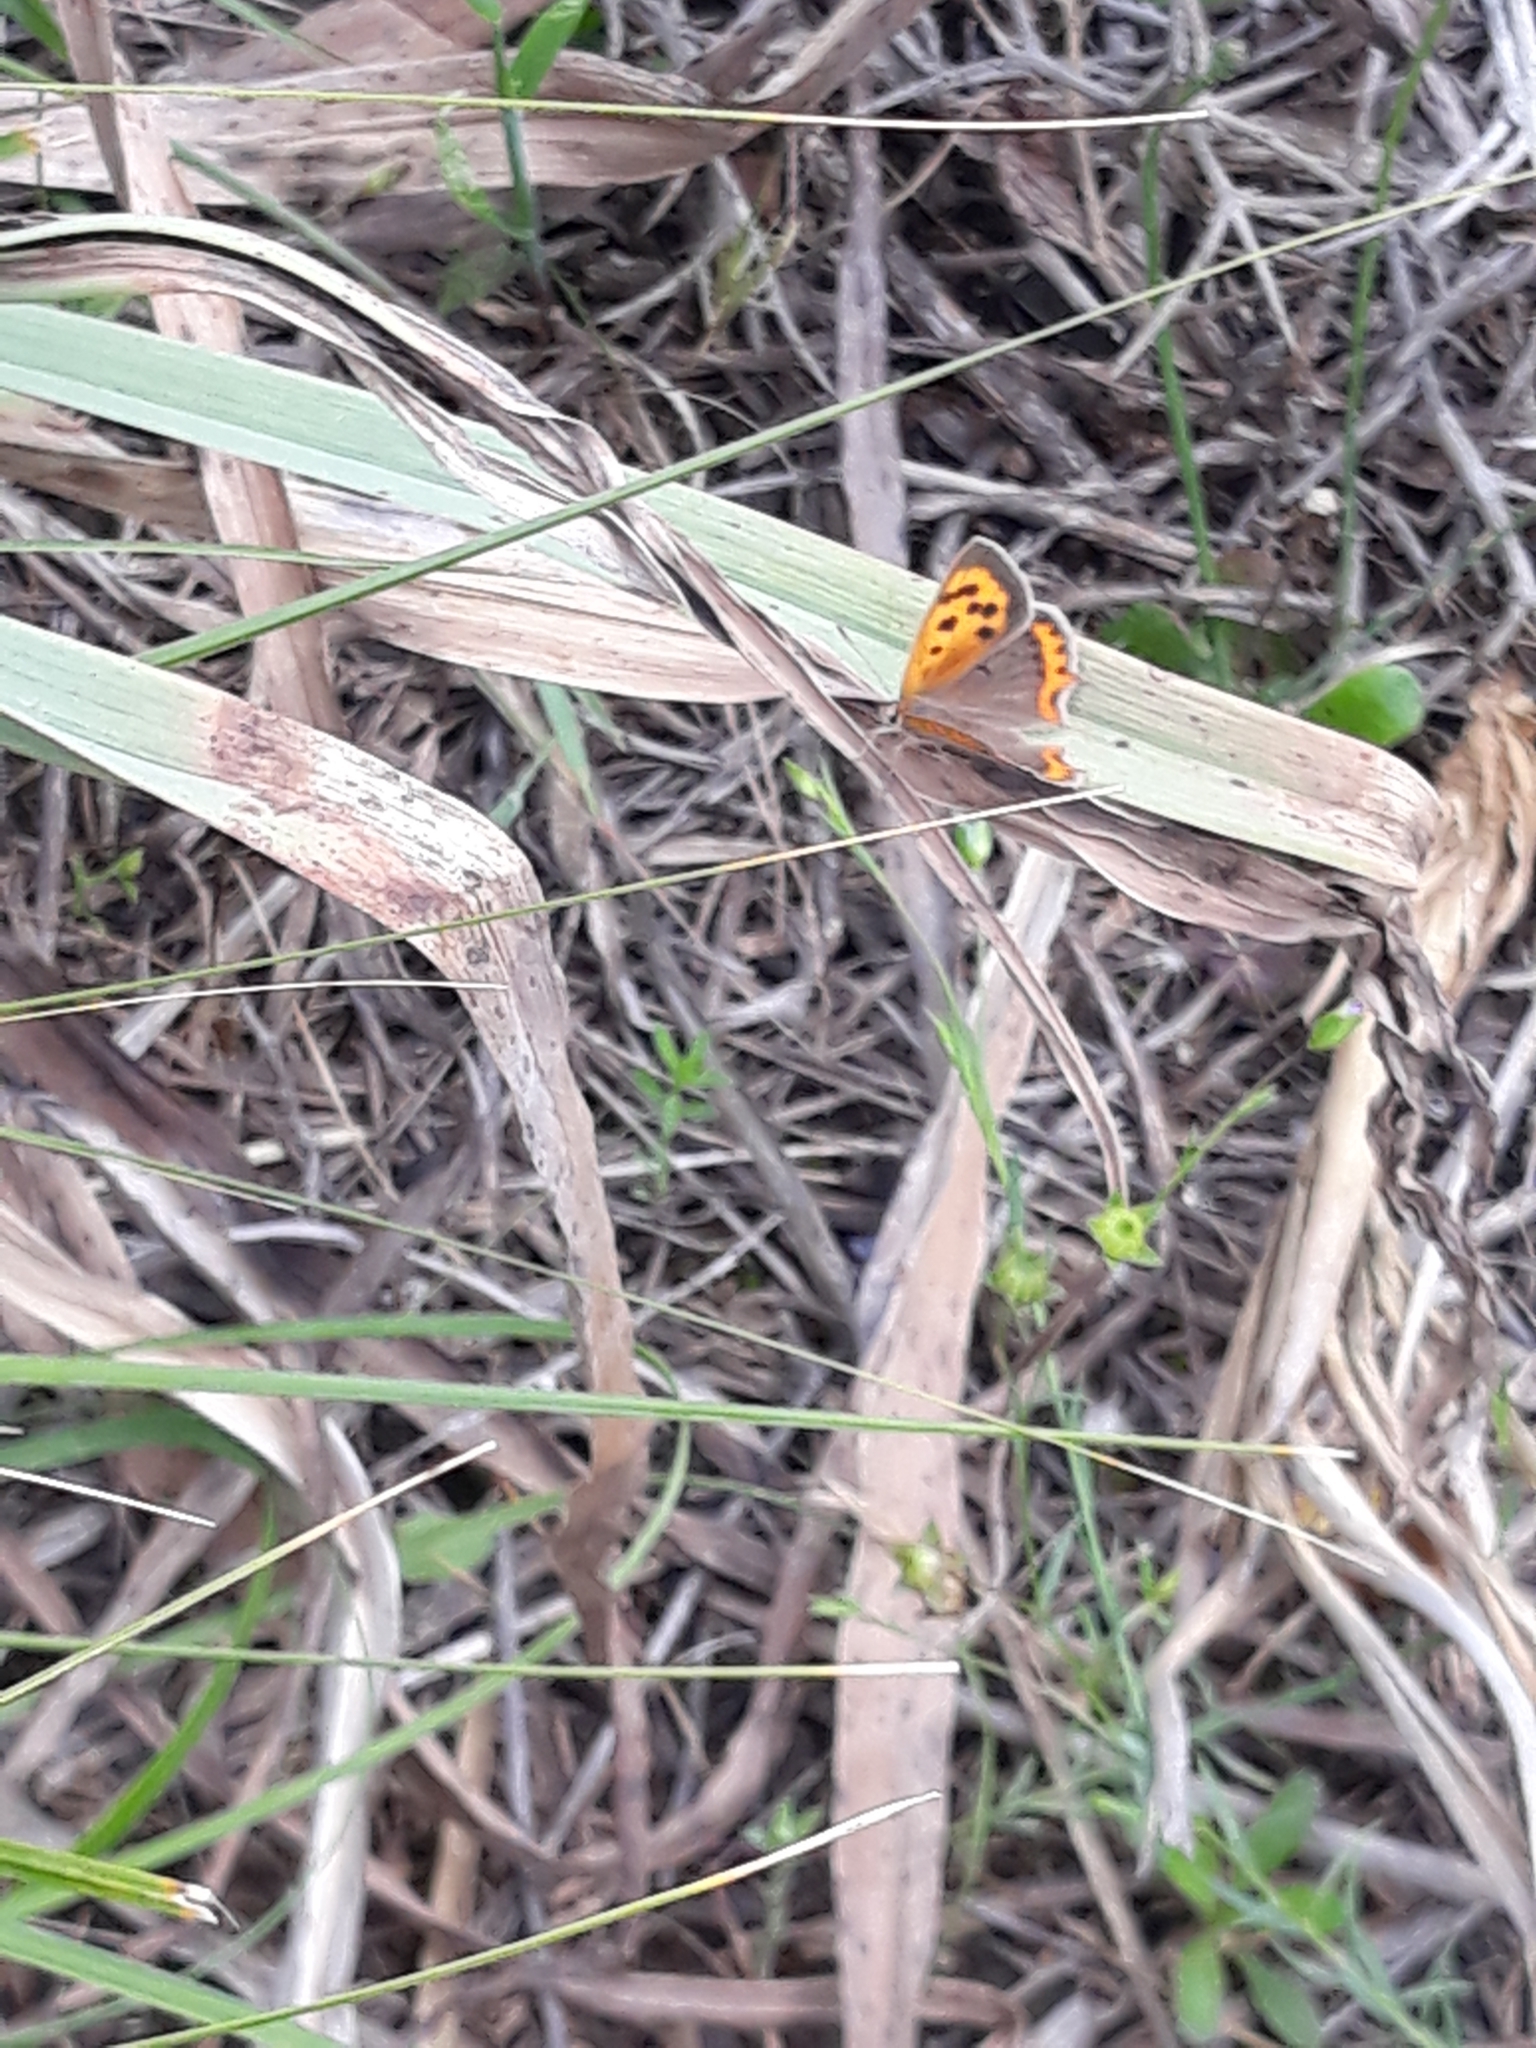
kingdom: Animalia
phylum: Arthropoda
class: Insecta
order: Lepidoptera
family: Lycaenidae
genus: Lycaena
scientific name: Lycaena phlaeas
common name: Small copper
